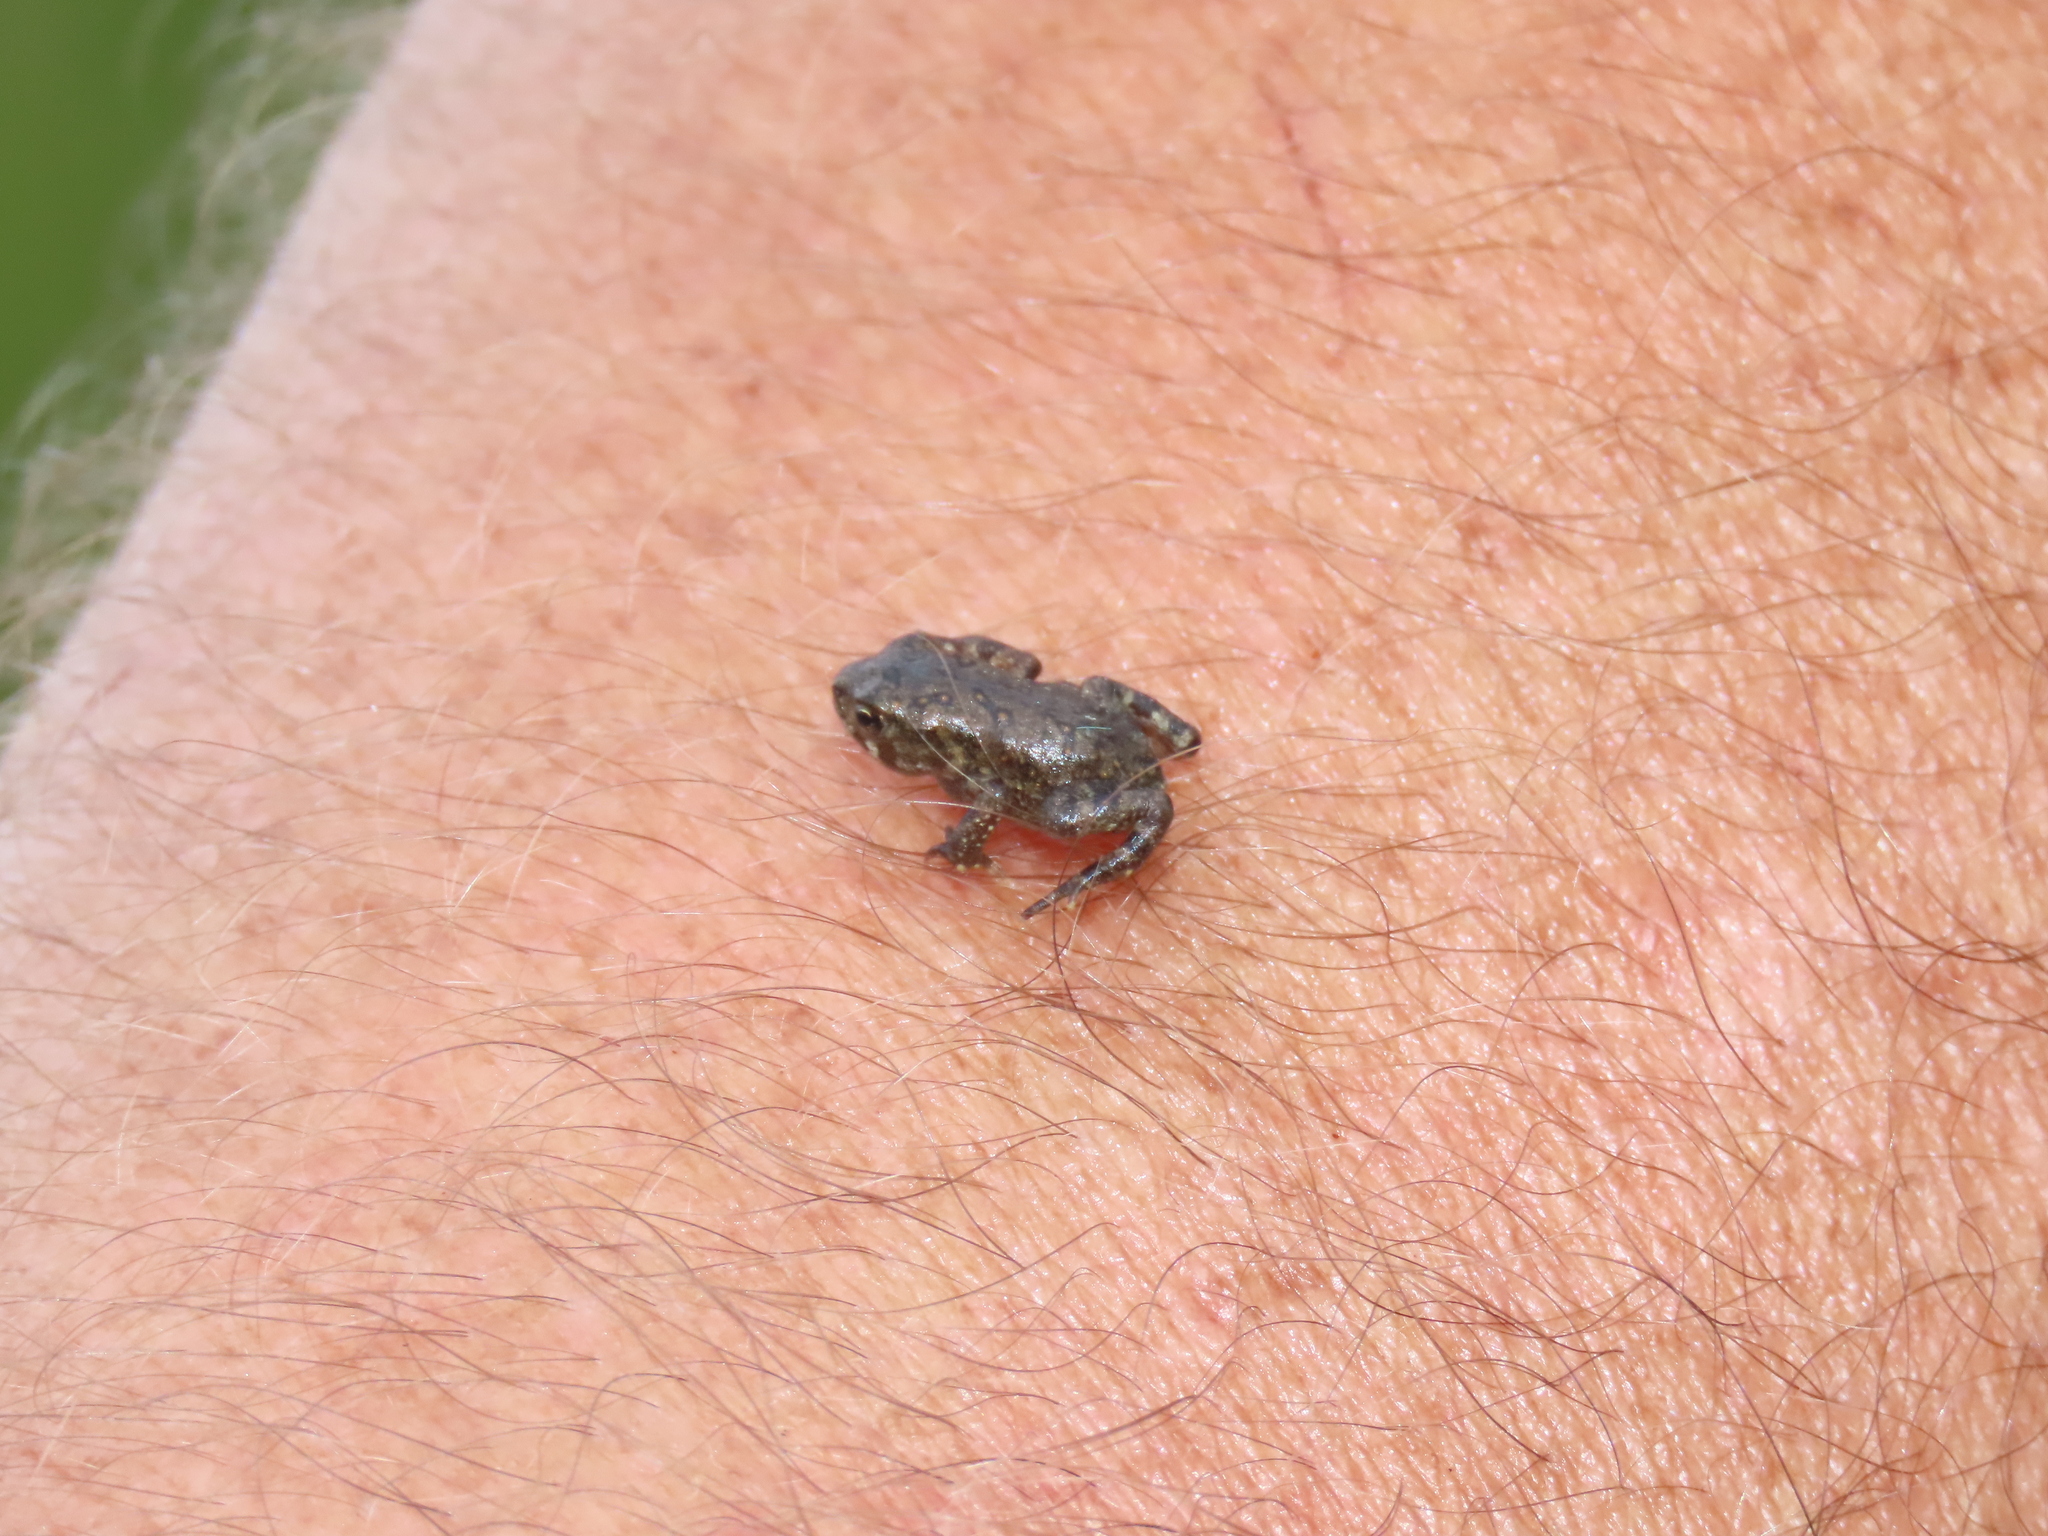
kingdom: Animalia
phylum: Chordata
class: Amphibia
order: Anura
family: Bufonidae
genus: Anaxyrus
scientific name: Anaxyrus americanus
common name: American toad
